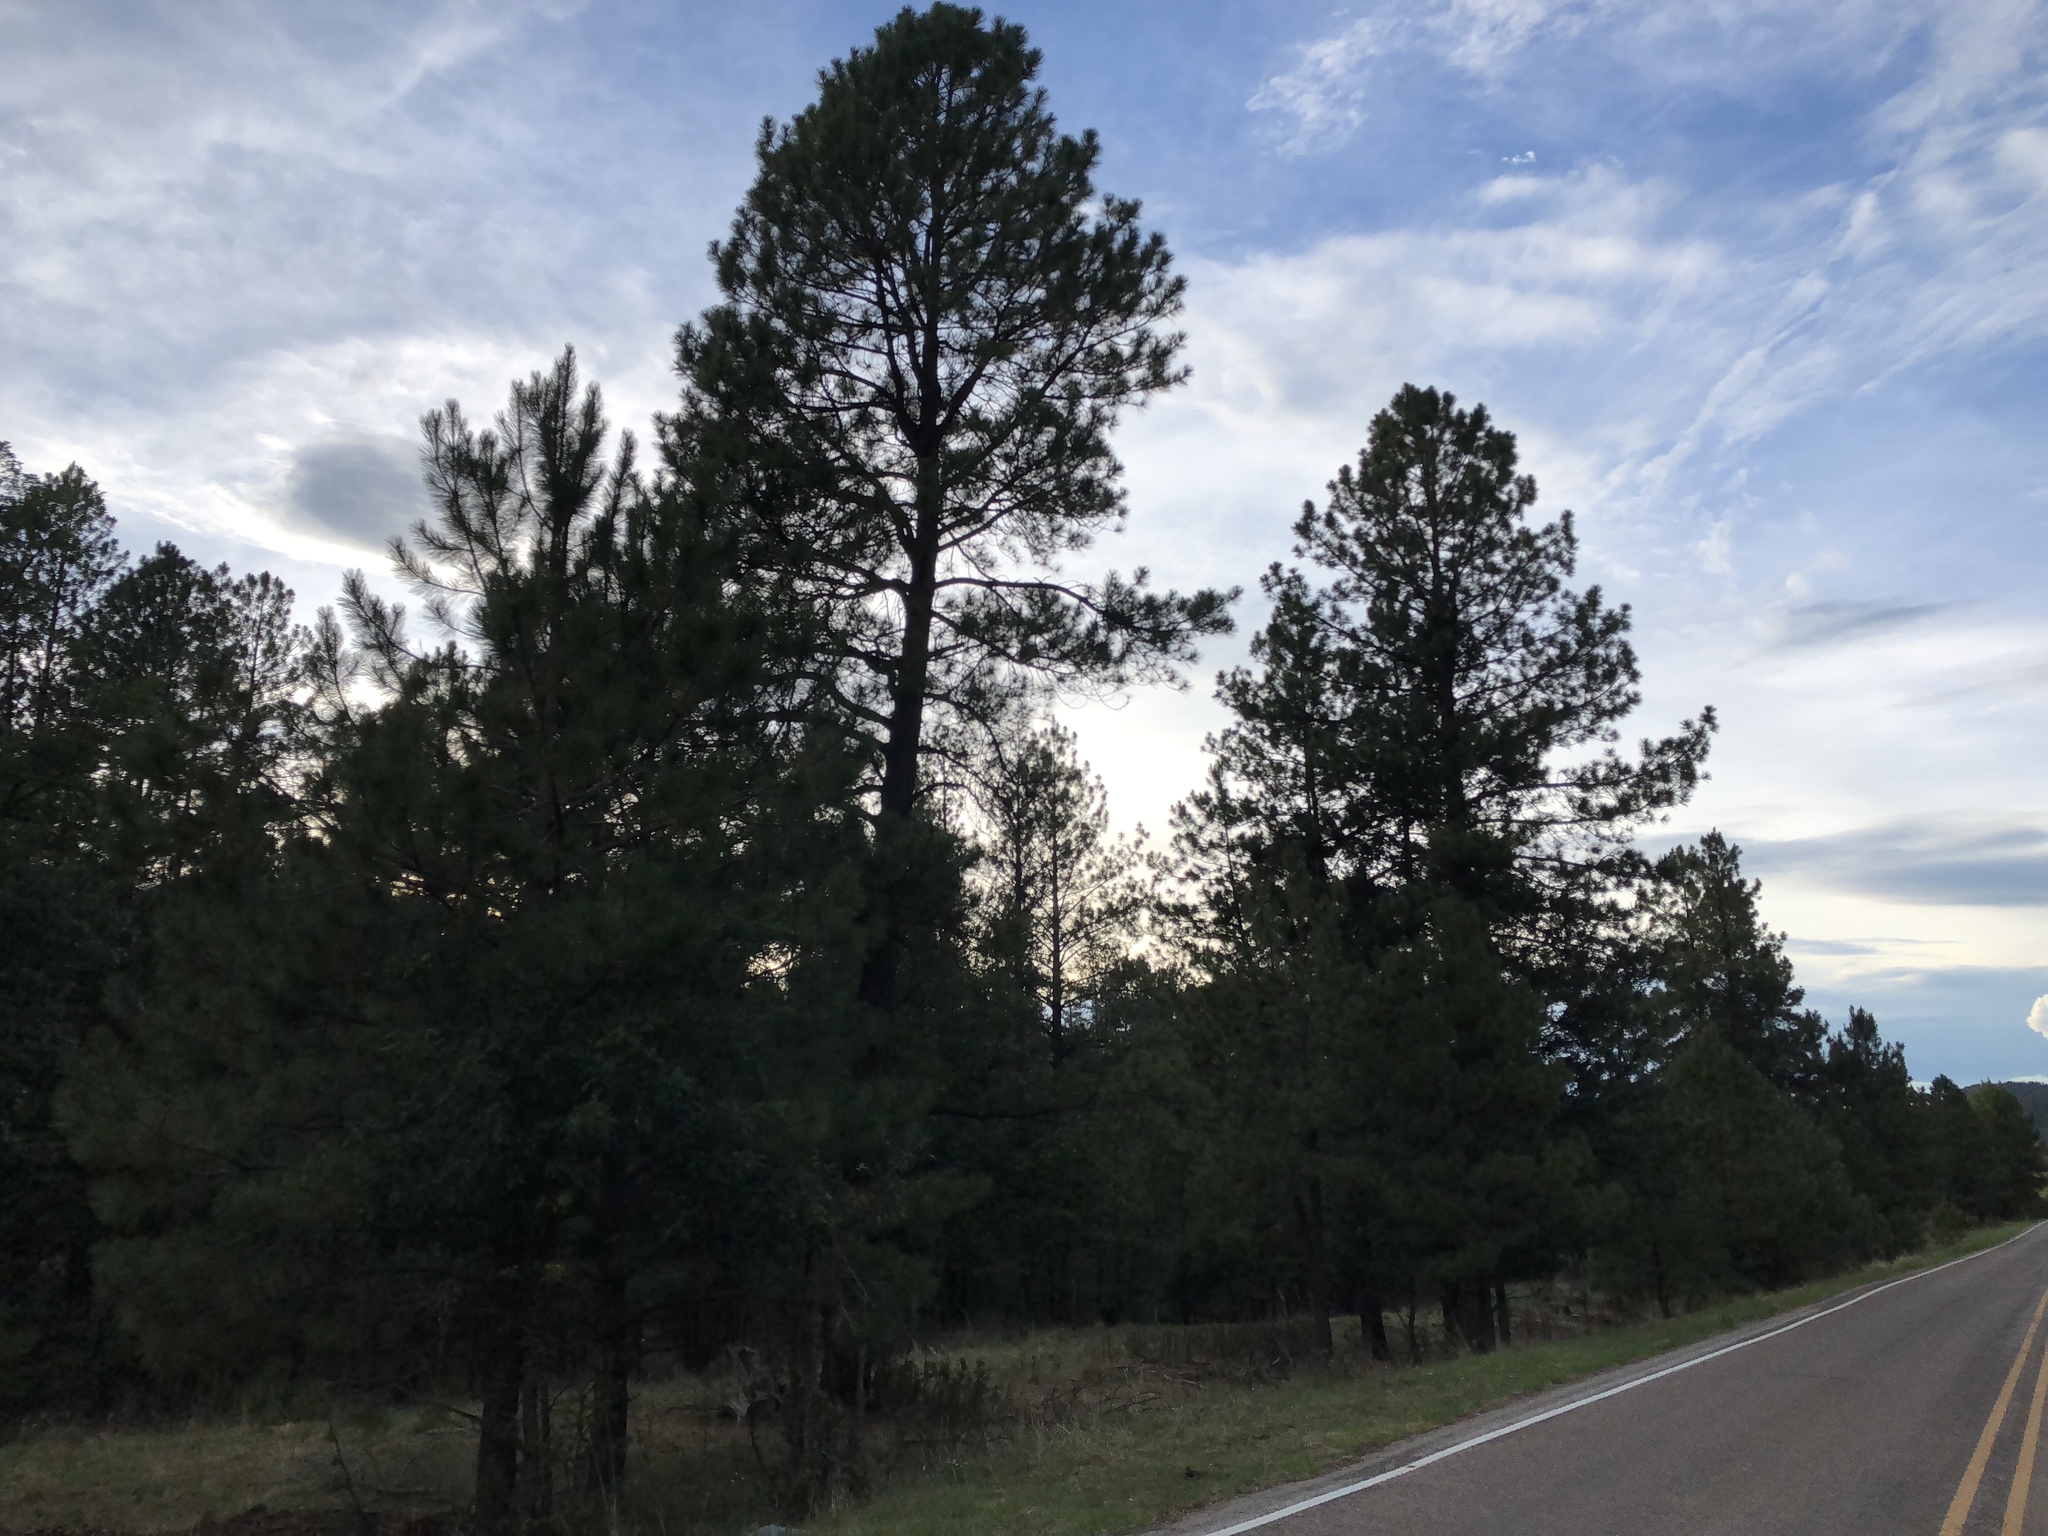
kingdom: Plantae
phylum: Tracheophyta
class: Pinopsida
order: Pinales
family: Pinaceae
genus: Pinus
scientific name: Pinus ponderosa
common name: Western yellow-pine
